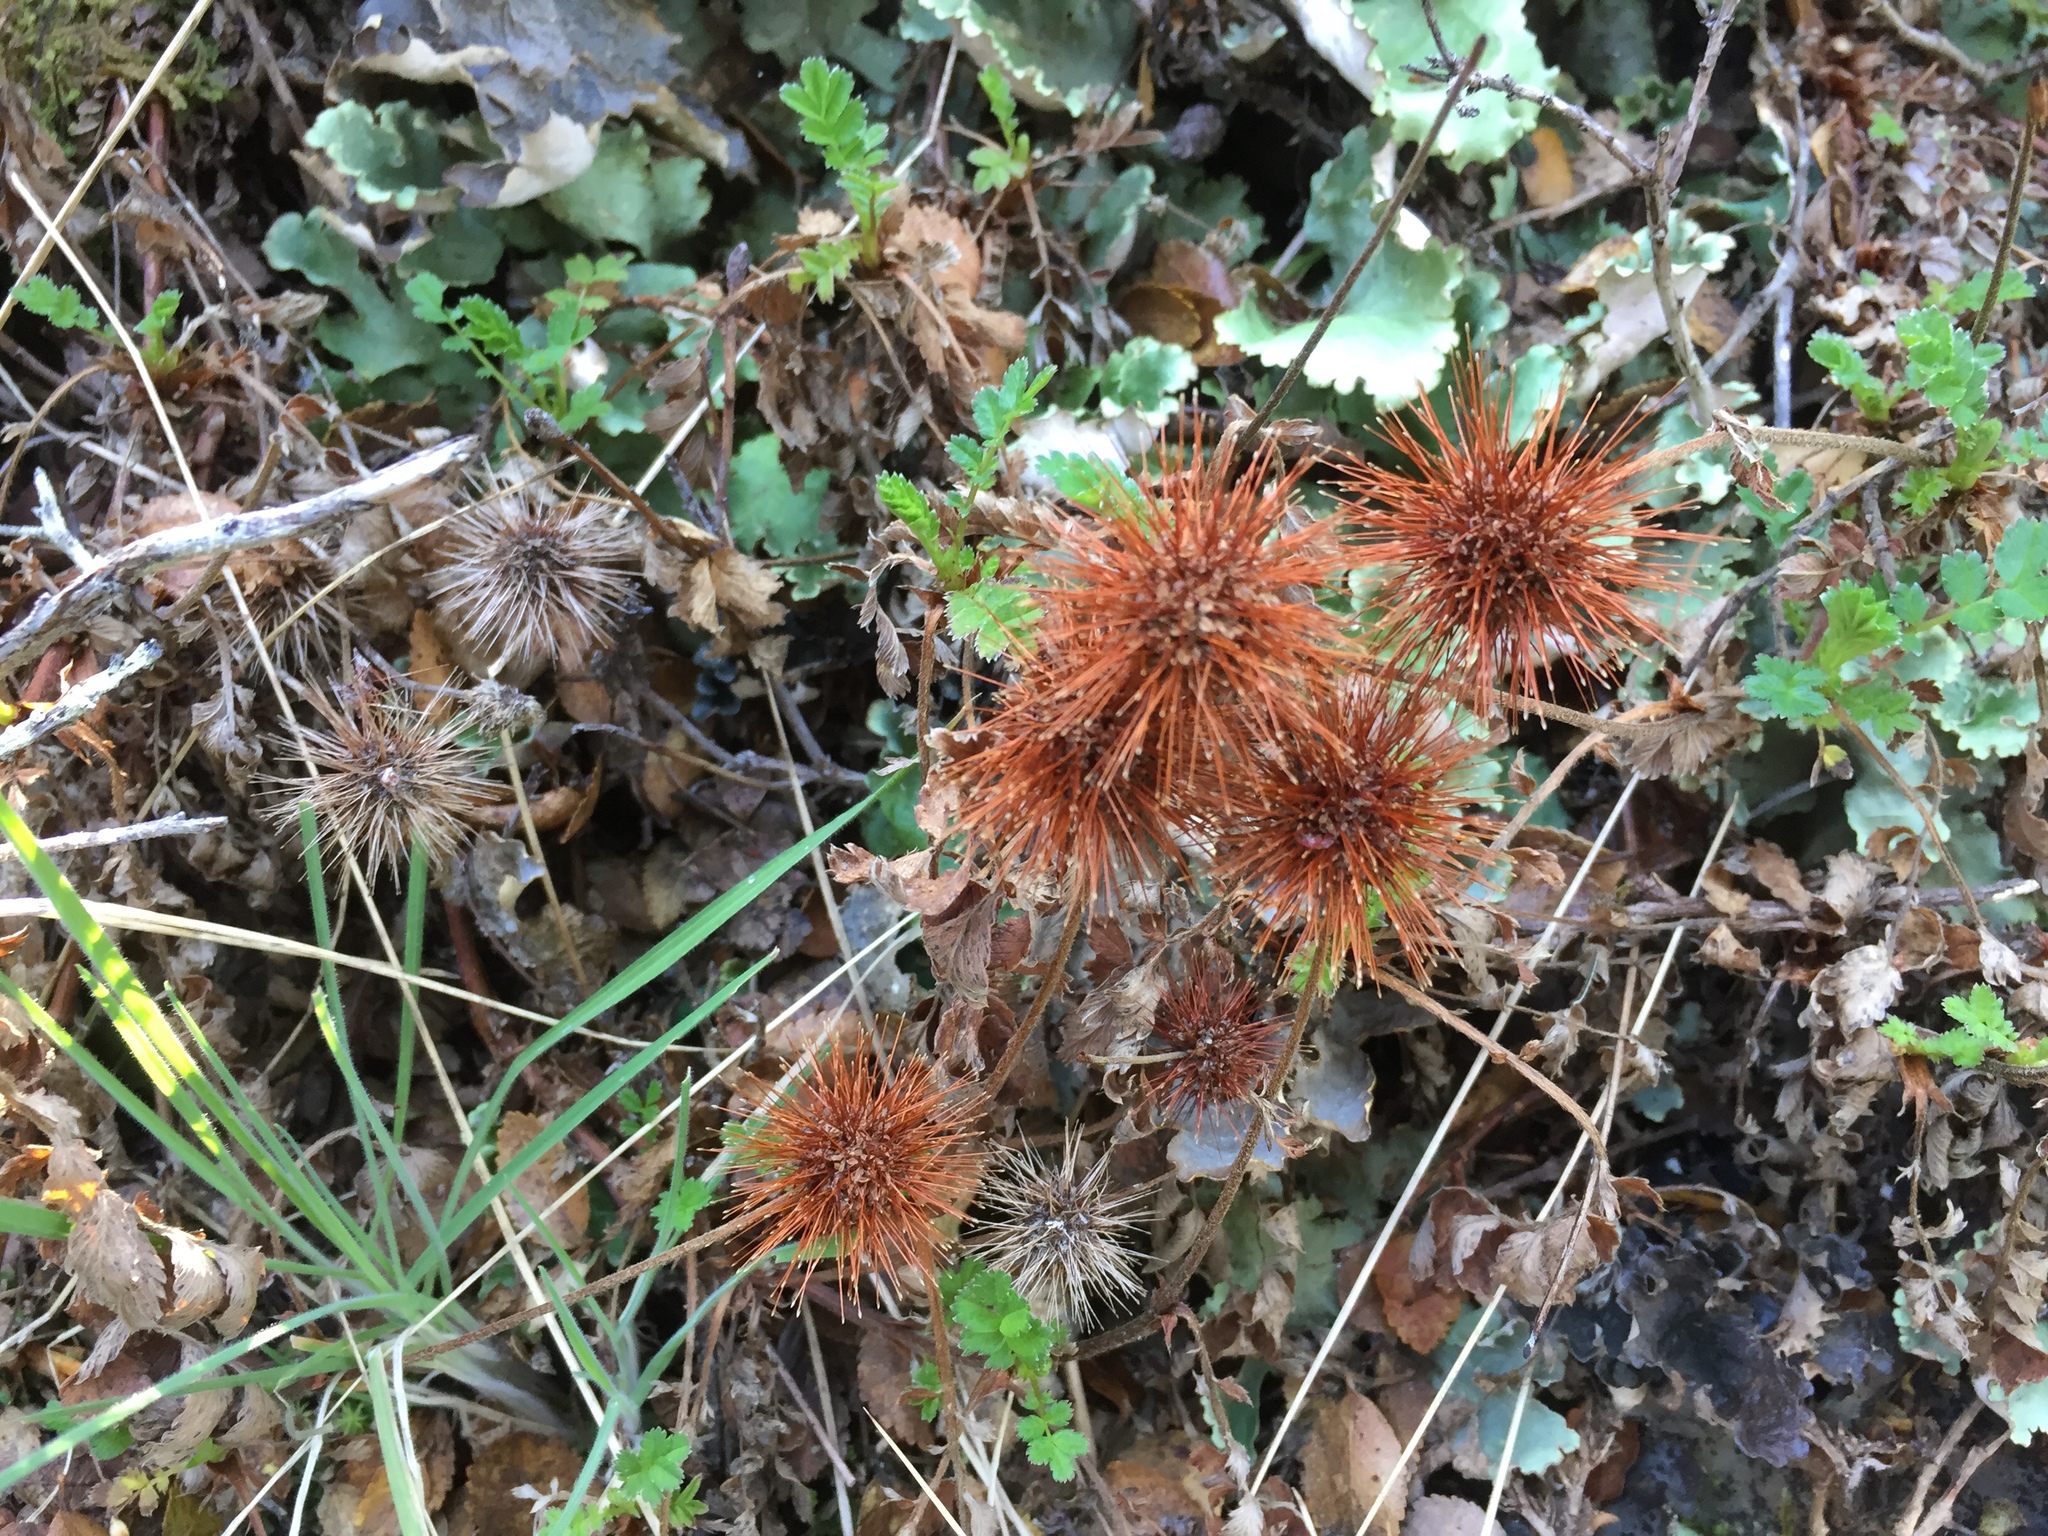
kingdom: Plantae
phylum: Tracheophyta
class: Magnoliopsida
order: Rosales
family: Rosaceae
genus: Acaena
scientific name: Acaena ovalifolia
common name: Two-spined acaena
